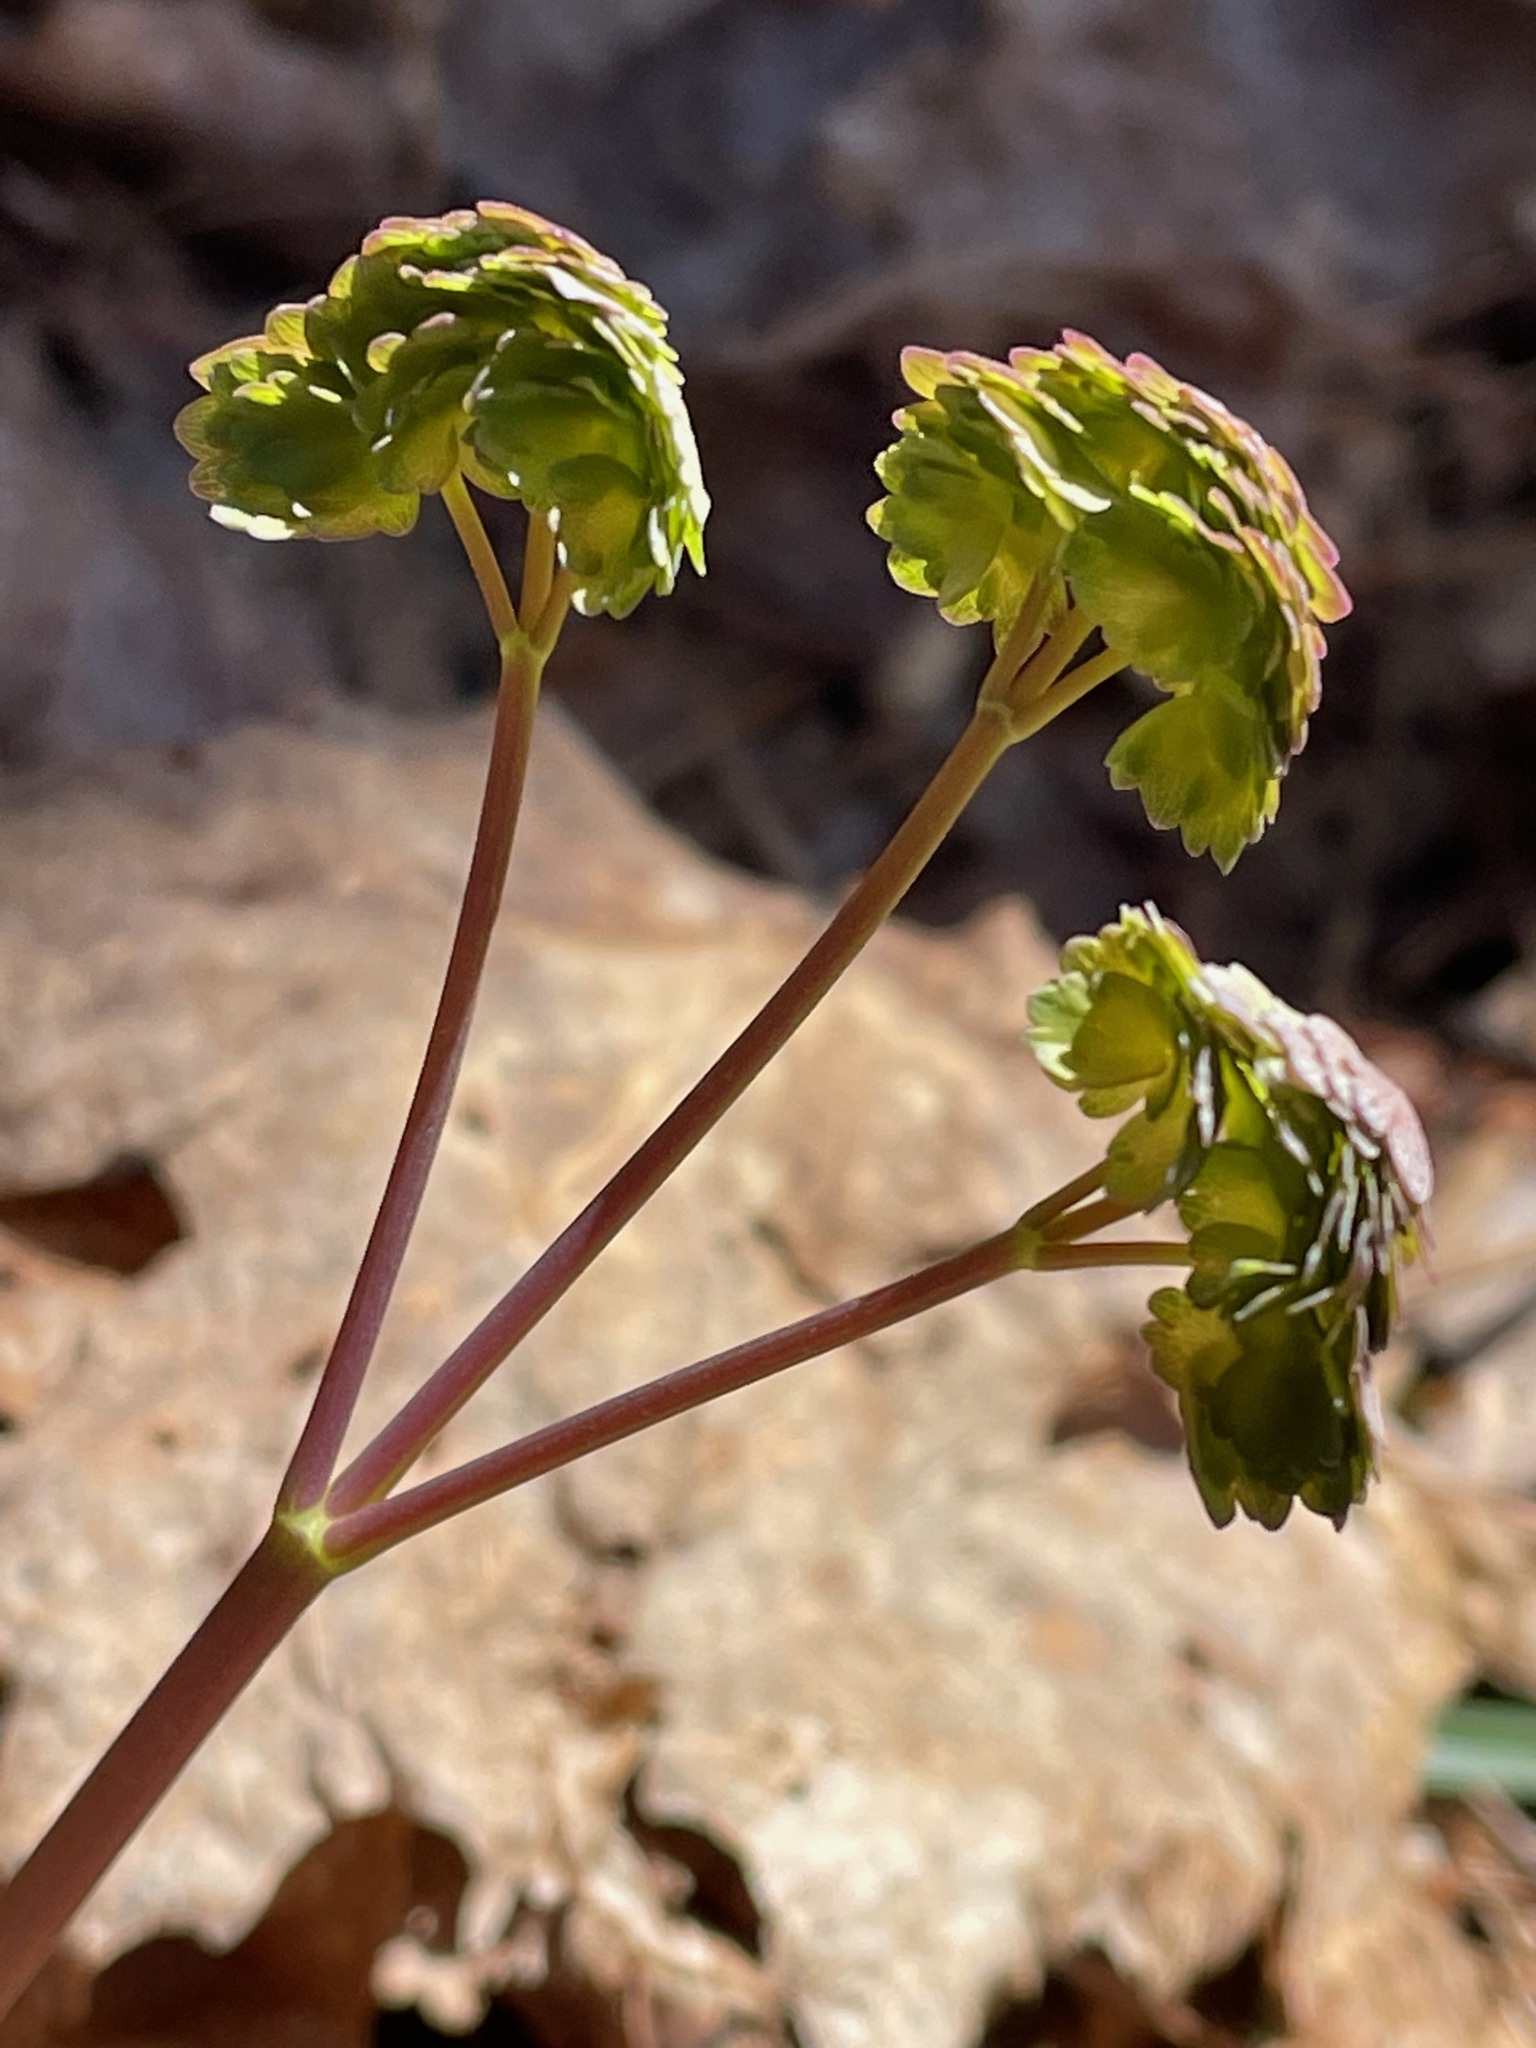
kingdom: Plantae
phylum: Tracheophyta
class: Magnoliopsida
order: Ranunculales
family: Ranunculaceae
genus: Thalictrum
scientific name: Thalictrum dioicum
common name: Early meadow-rue
